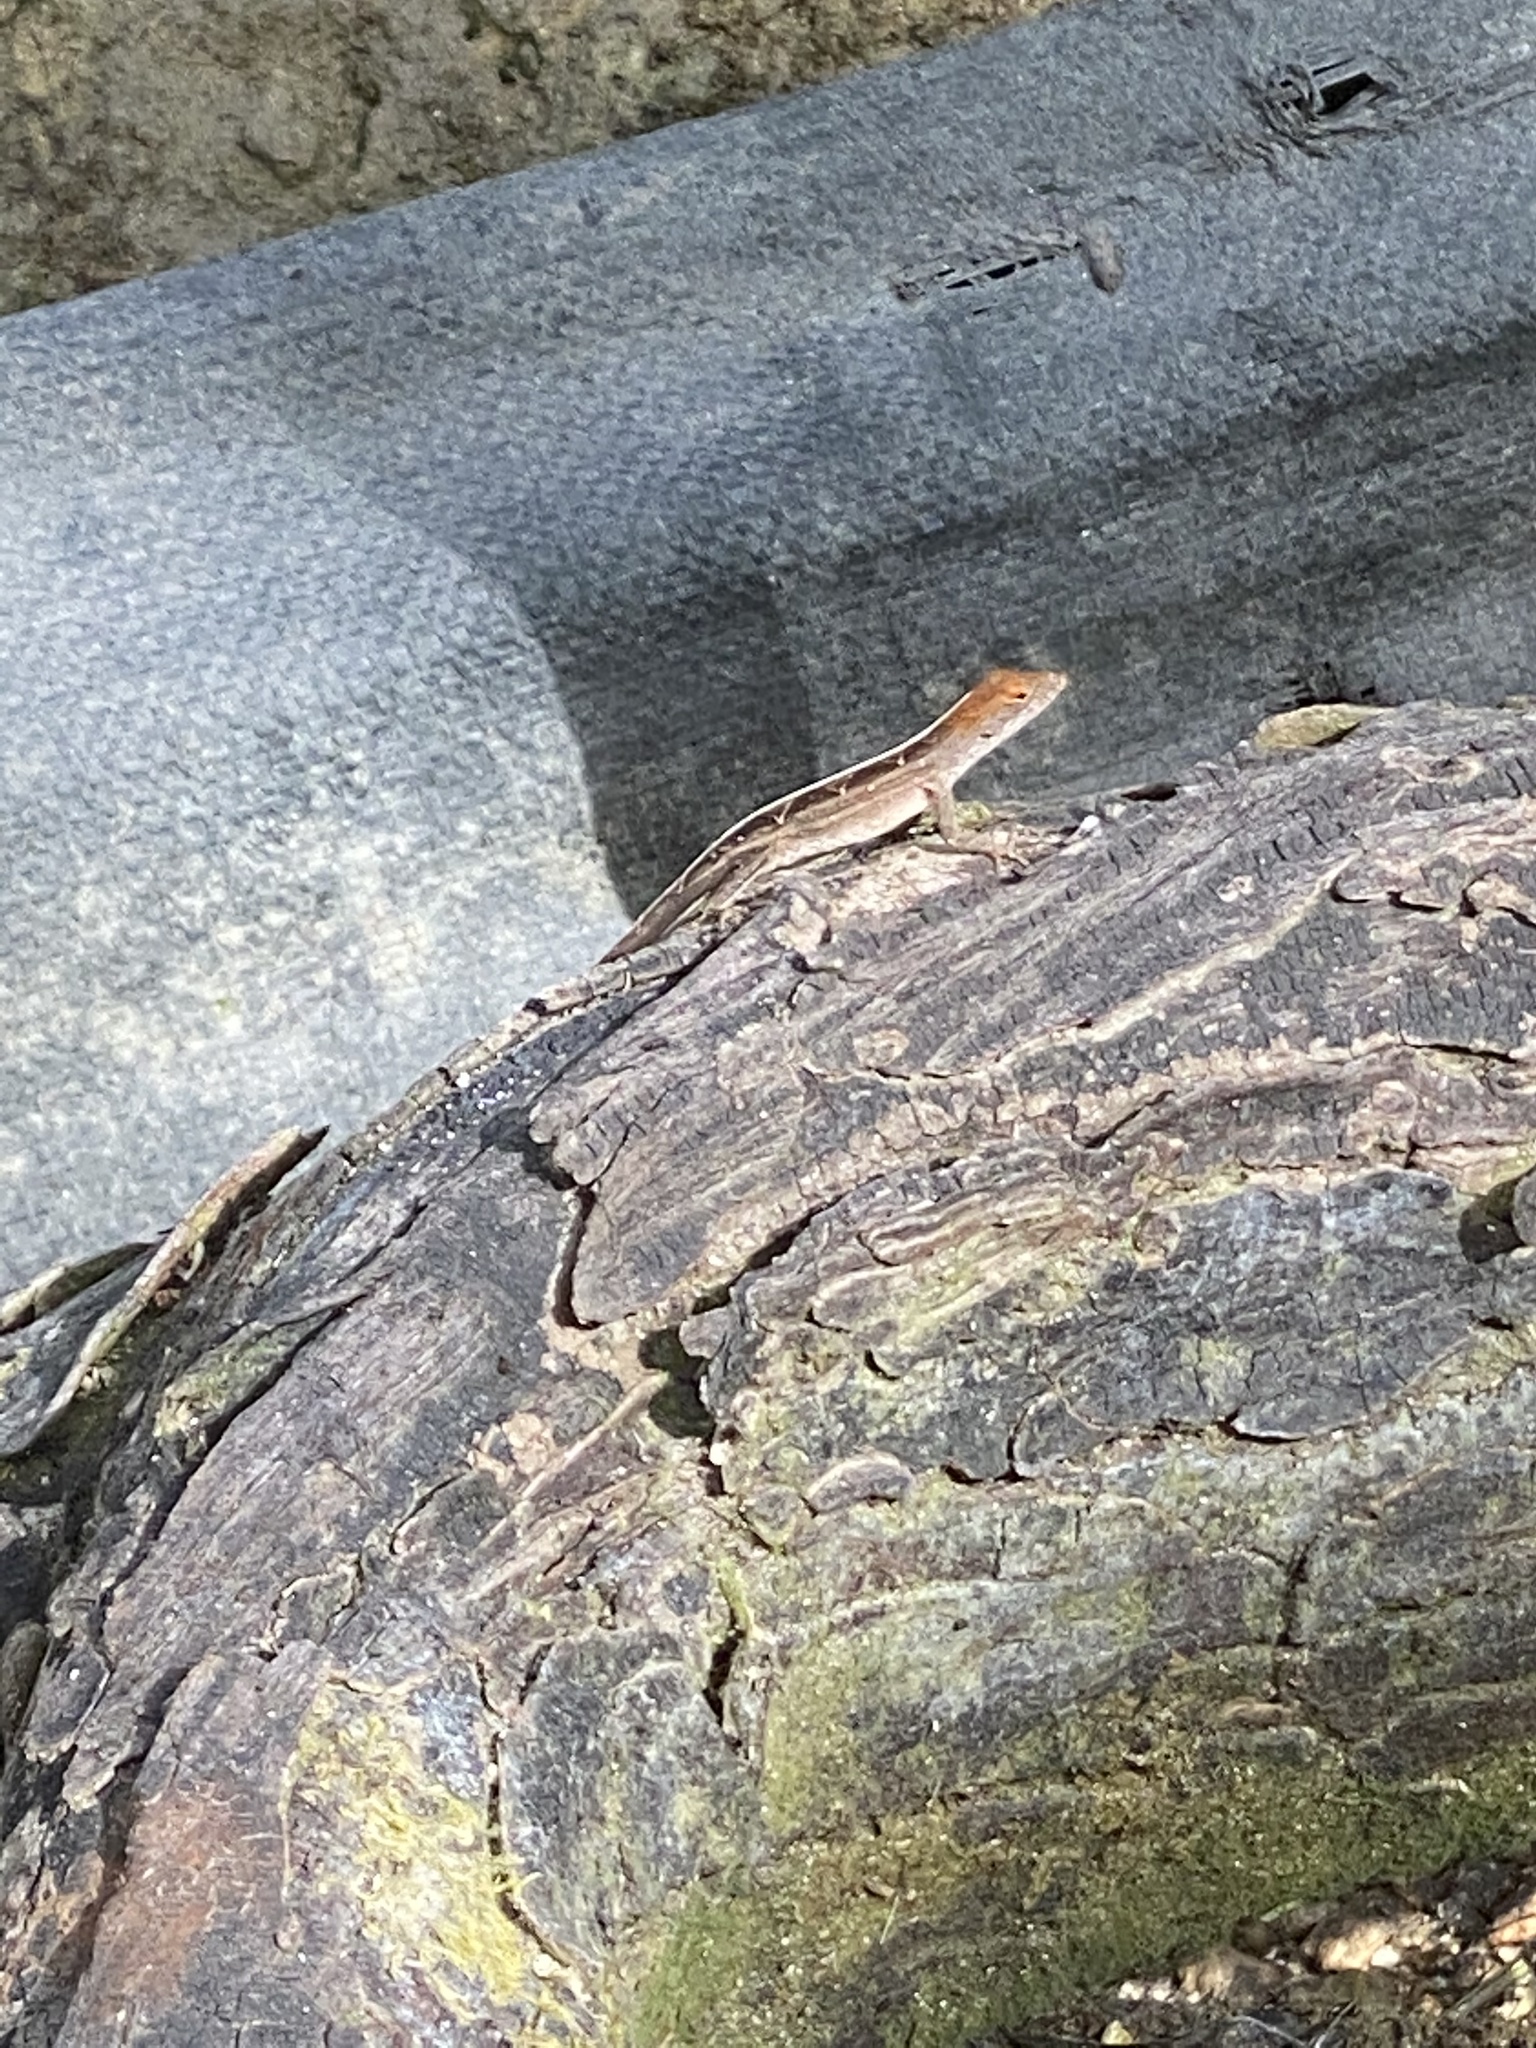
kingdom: Animalia
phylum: Chordata
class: Squamata
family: Dactyloidae
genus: Anolis
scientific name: Anolis sagrei
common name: Brown anole
